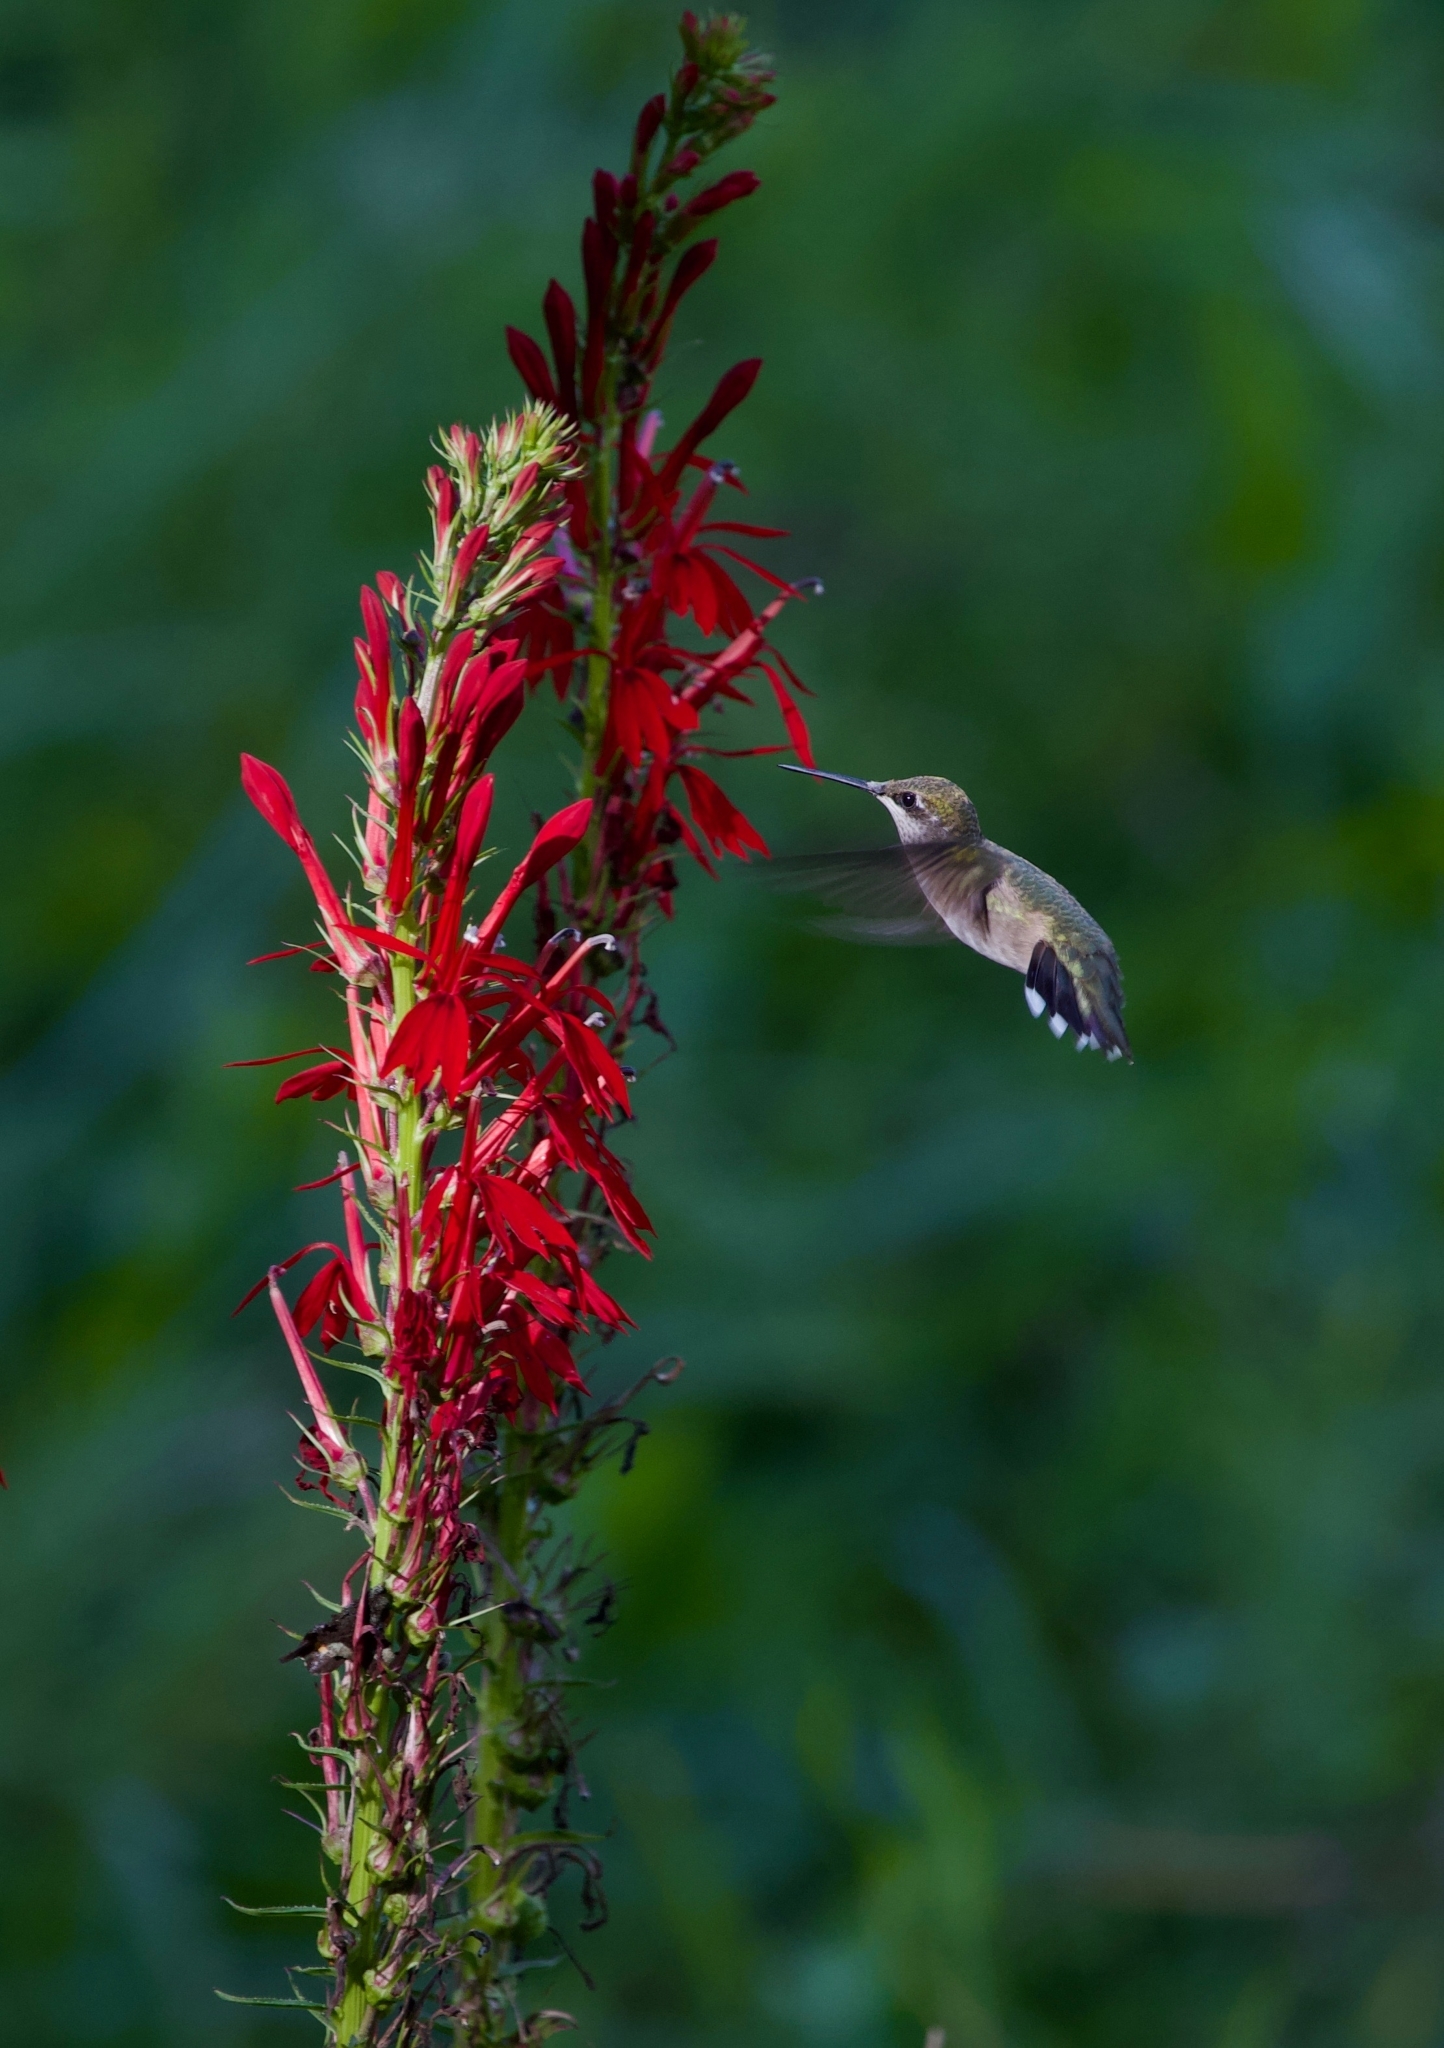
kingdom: Plantae
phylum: Tracheophyta
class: Magnoliopsida
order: Asterales
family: Campanulaceae
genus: Lobelia
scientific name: Lobelia cardinalis
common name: Cardinal flower
